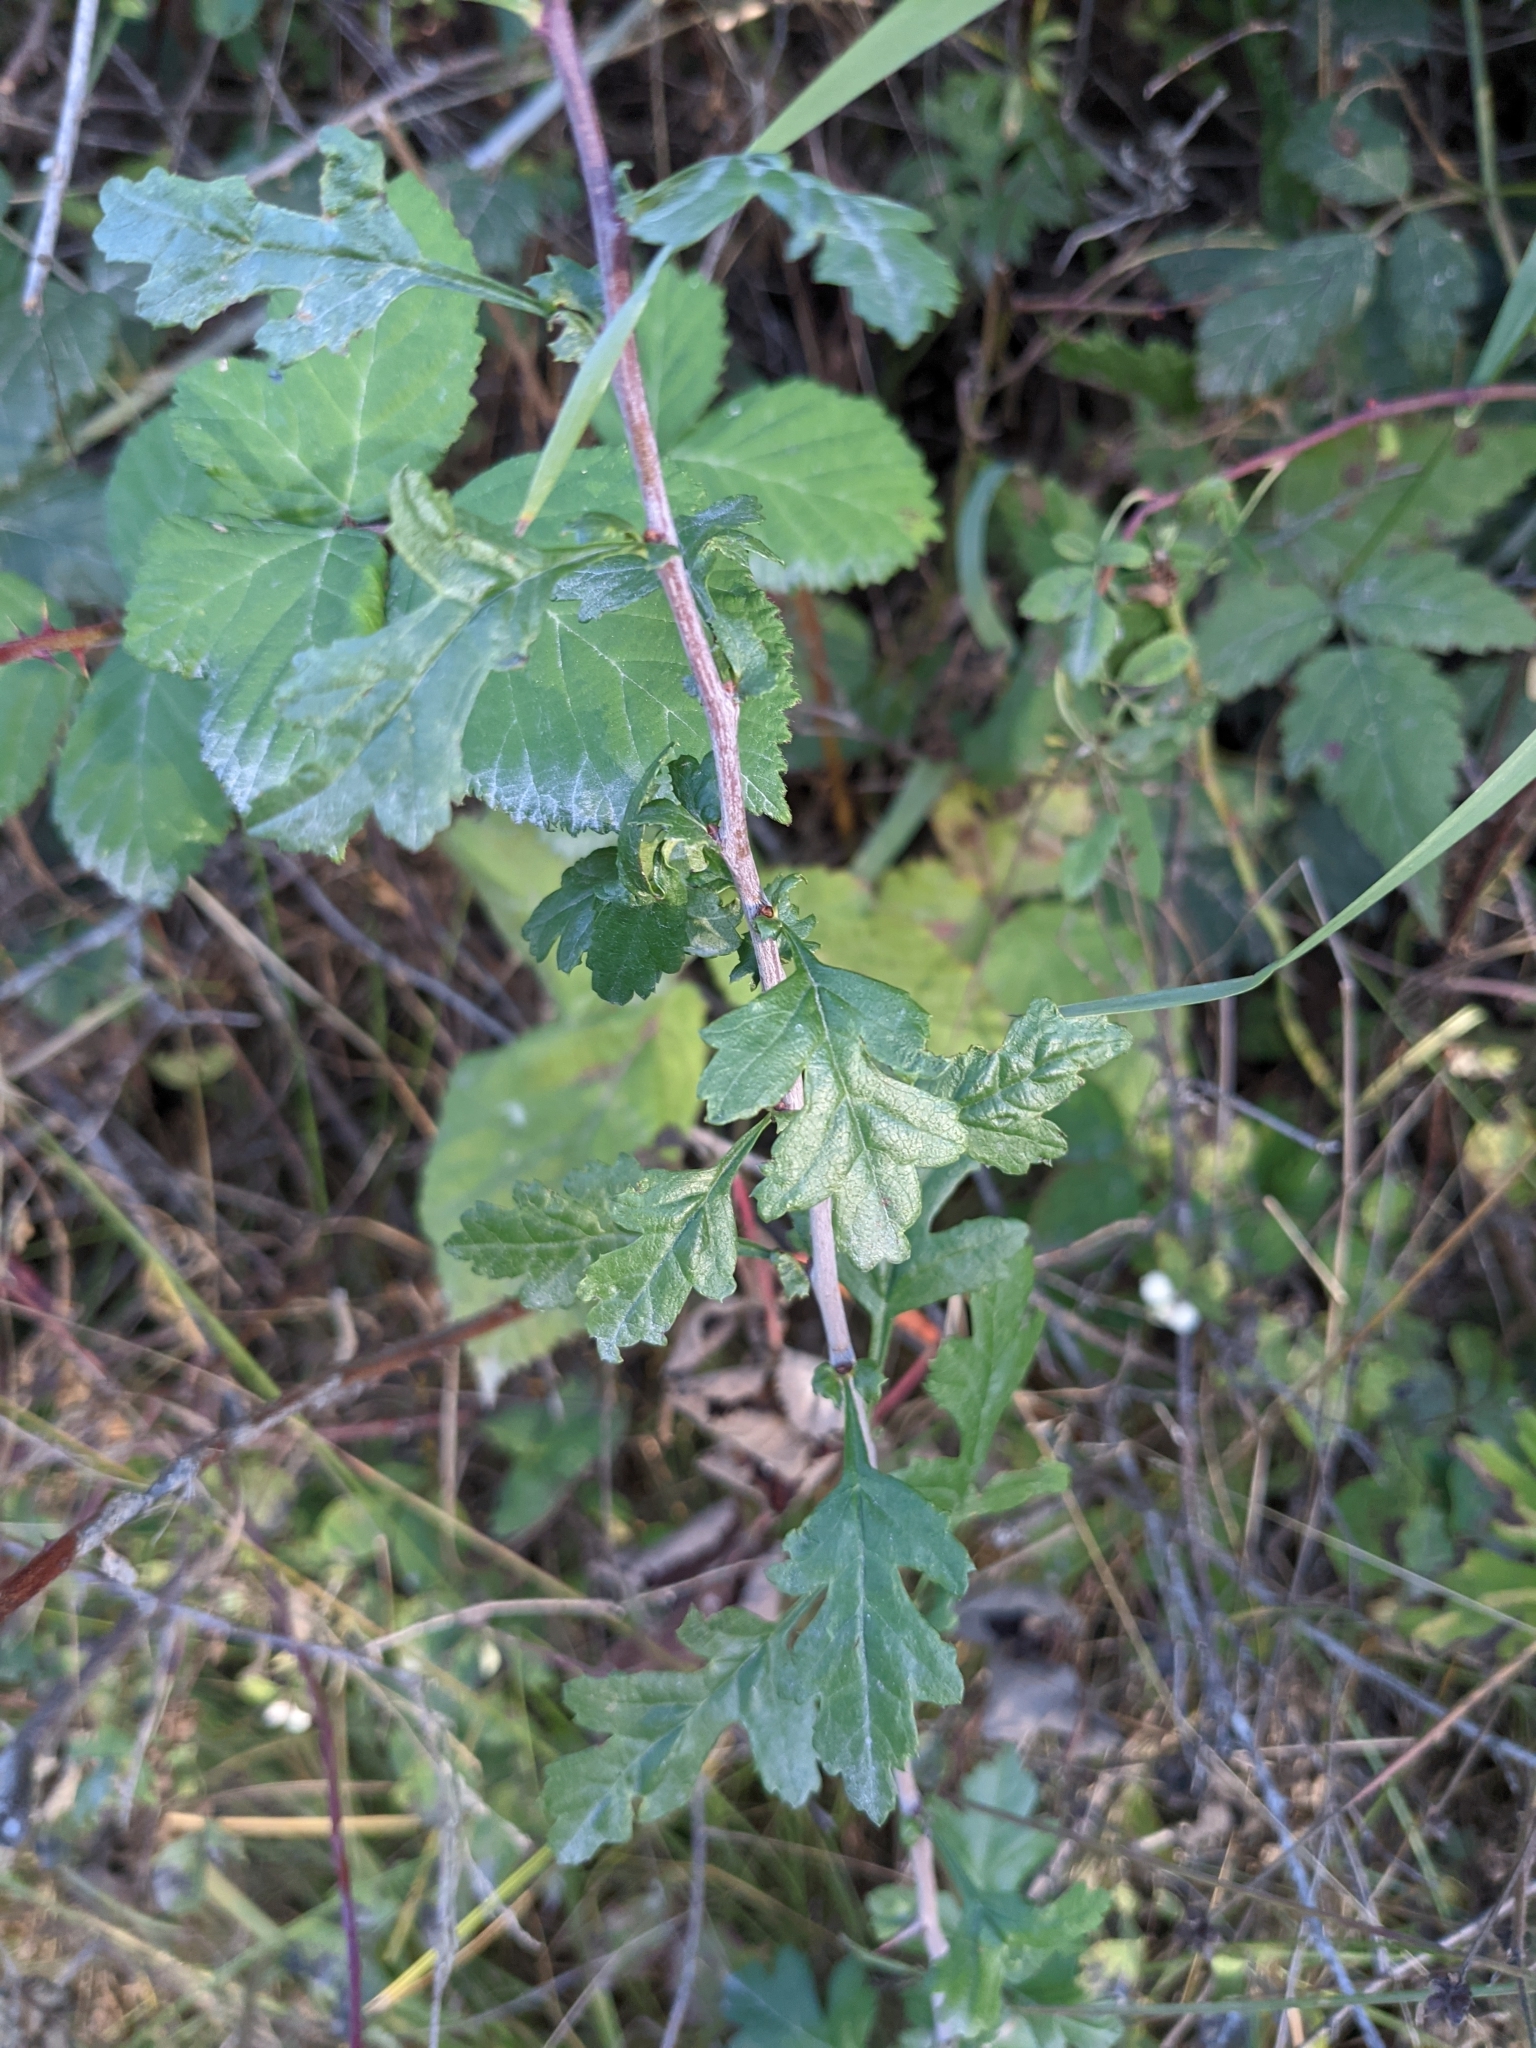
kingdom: Plantae
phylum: Tracheophyta
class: Magnoliopsida
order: Rosales
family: Rosaceae
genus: Crataegus
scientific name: Crataegus monogyna
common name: Hawthorn
